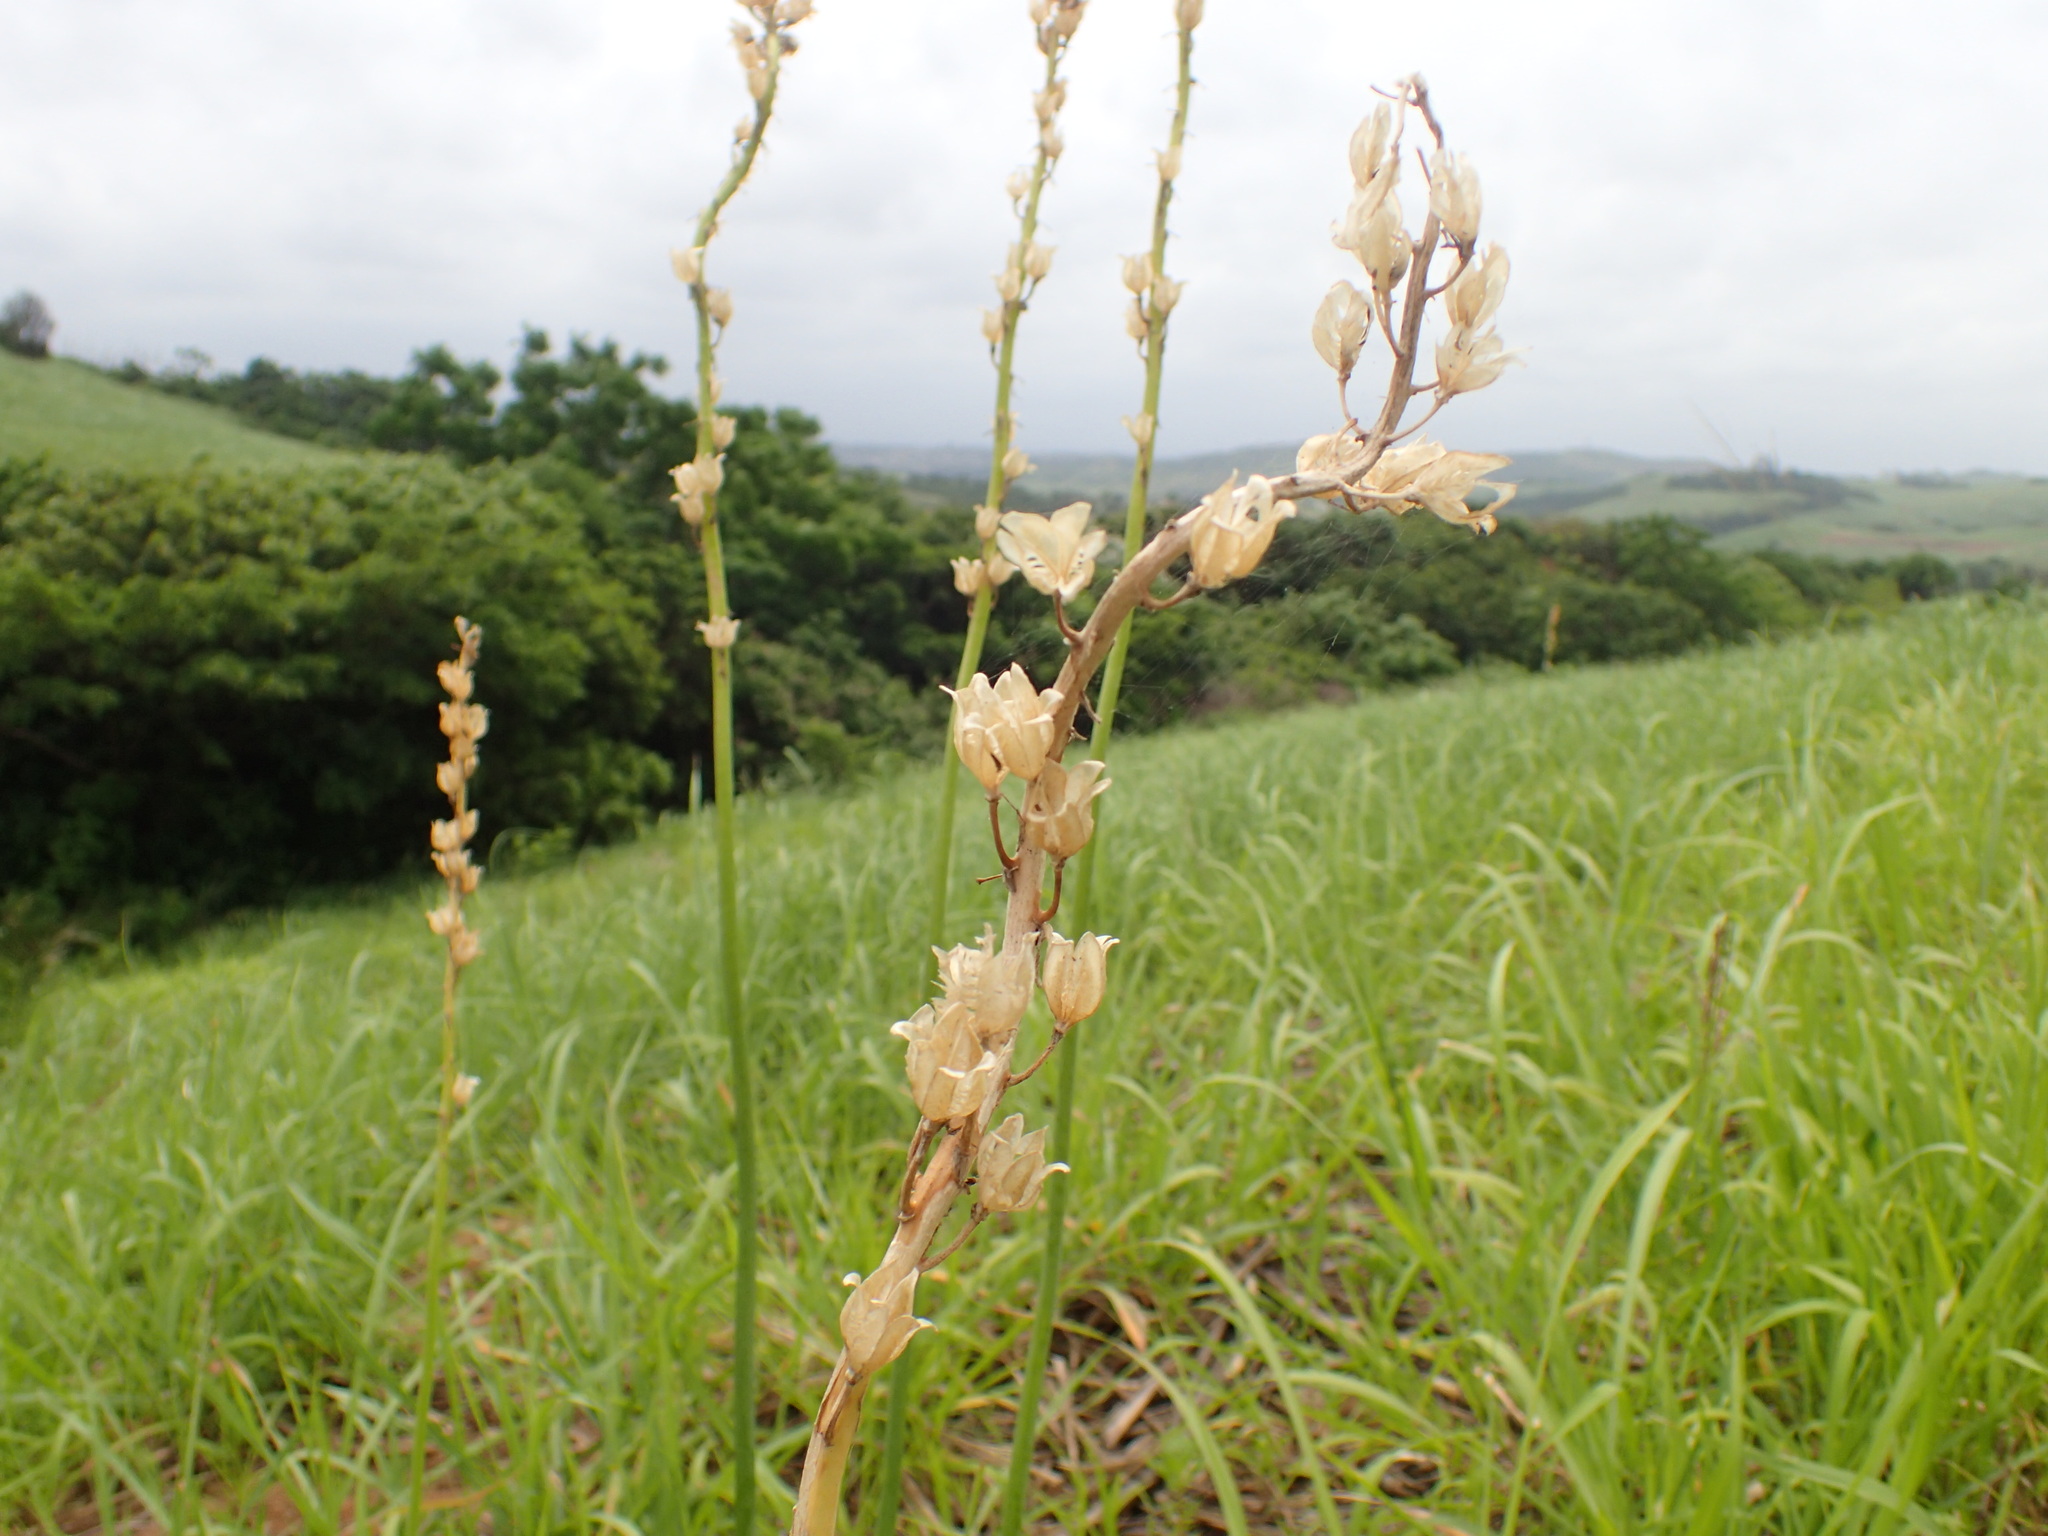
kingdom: Plantae
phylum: Tracheophyta
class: Liliopsida
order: Asparagales
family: Asparagaceae
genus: Drimia
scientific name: Drimia elata
